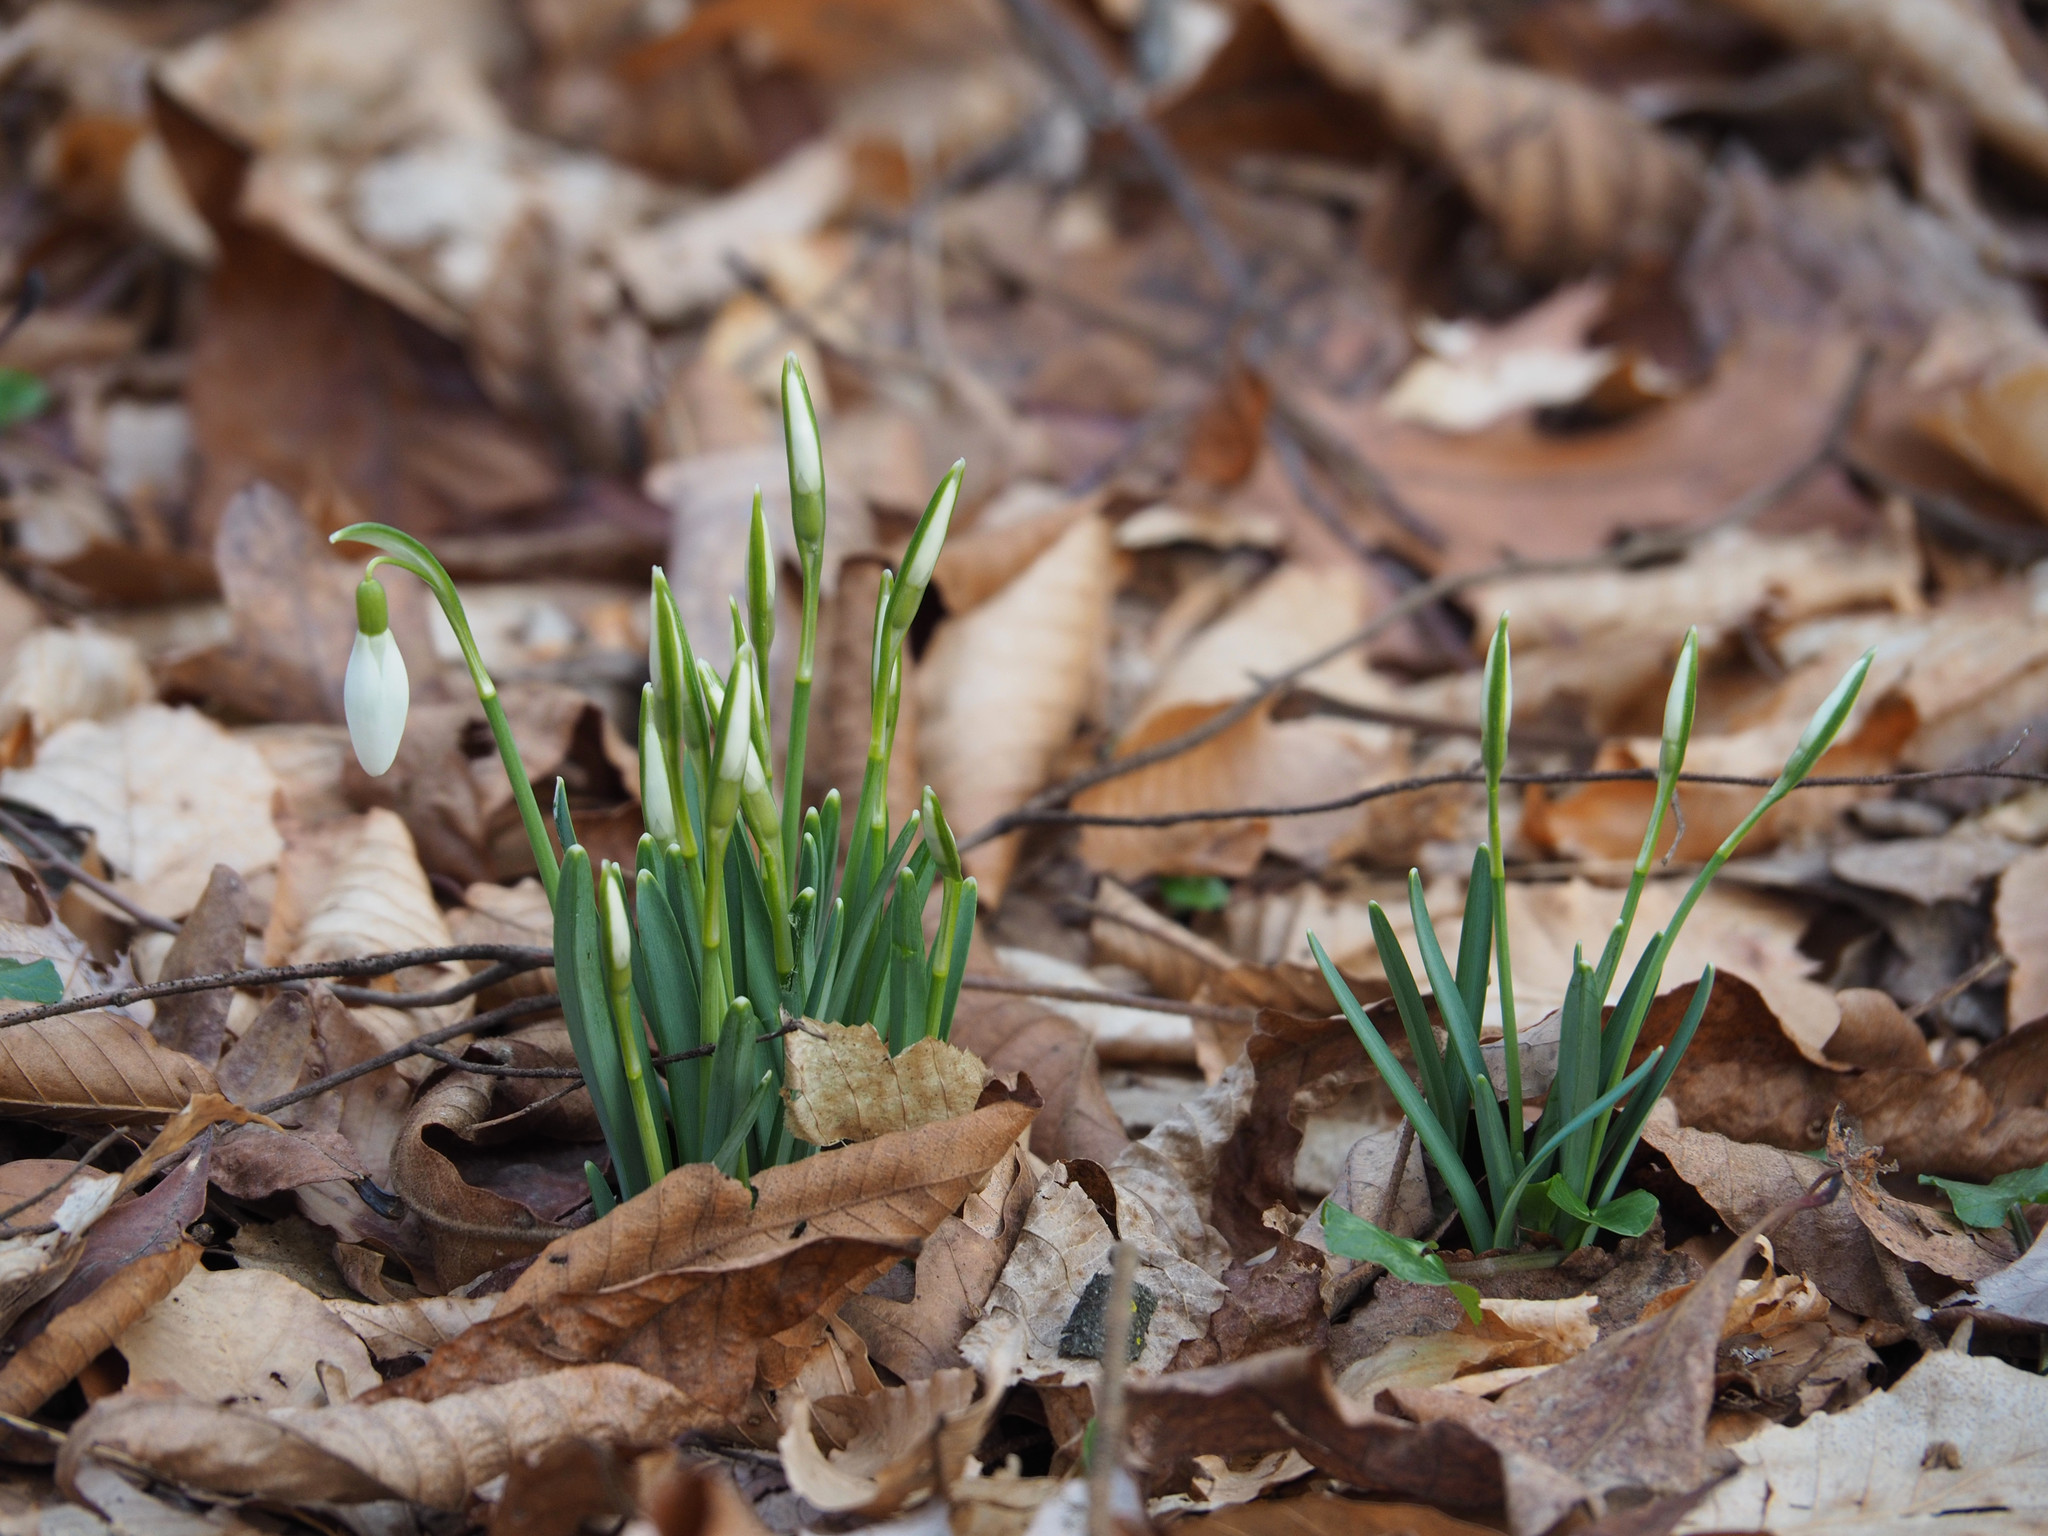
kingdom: Plantae
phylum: Tracheophyta
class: Liliopsida
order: Asparagales
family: Amaryllidaceae
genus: Galanthus
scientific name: Galanthus nivalis
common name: Snowdrop
